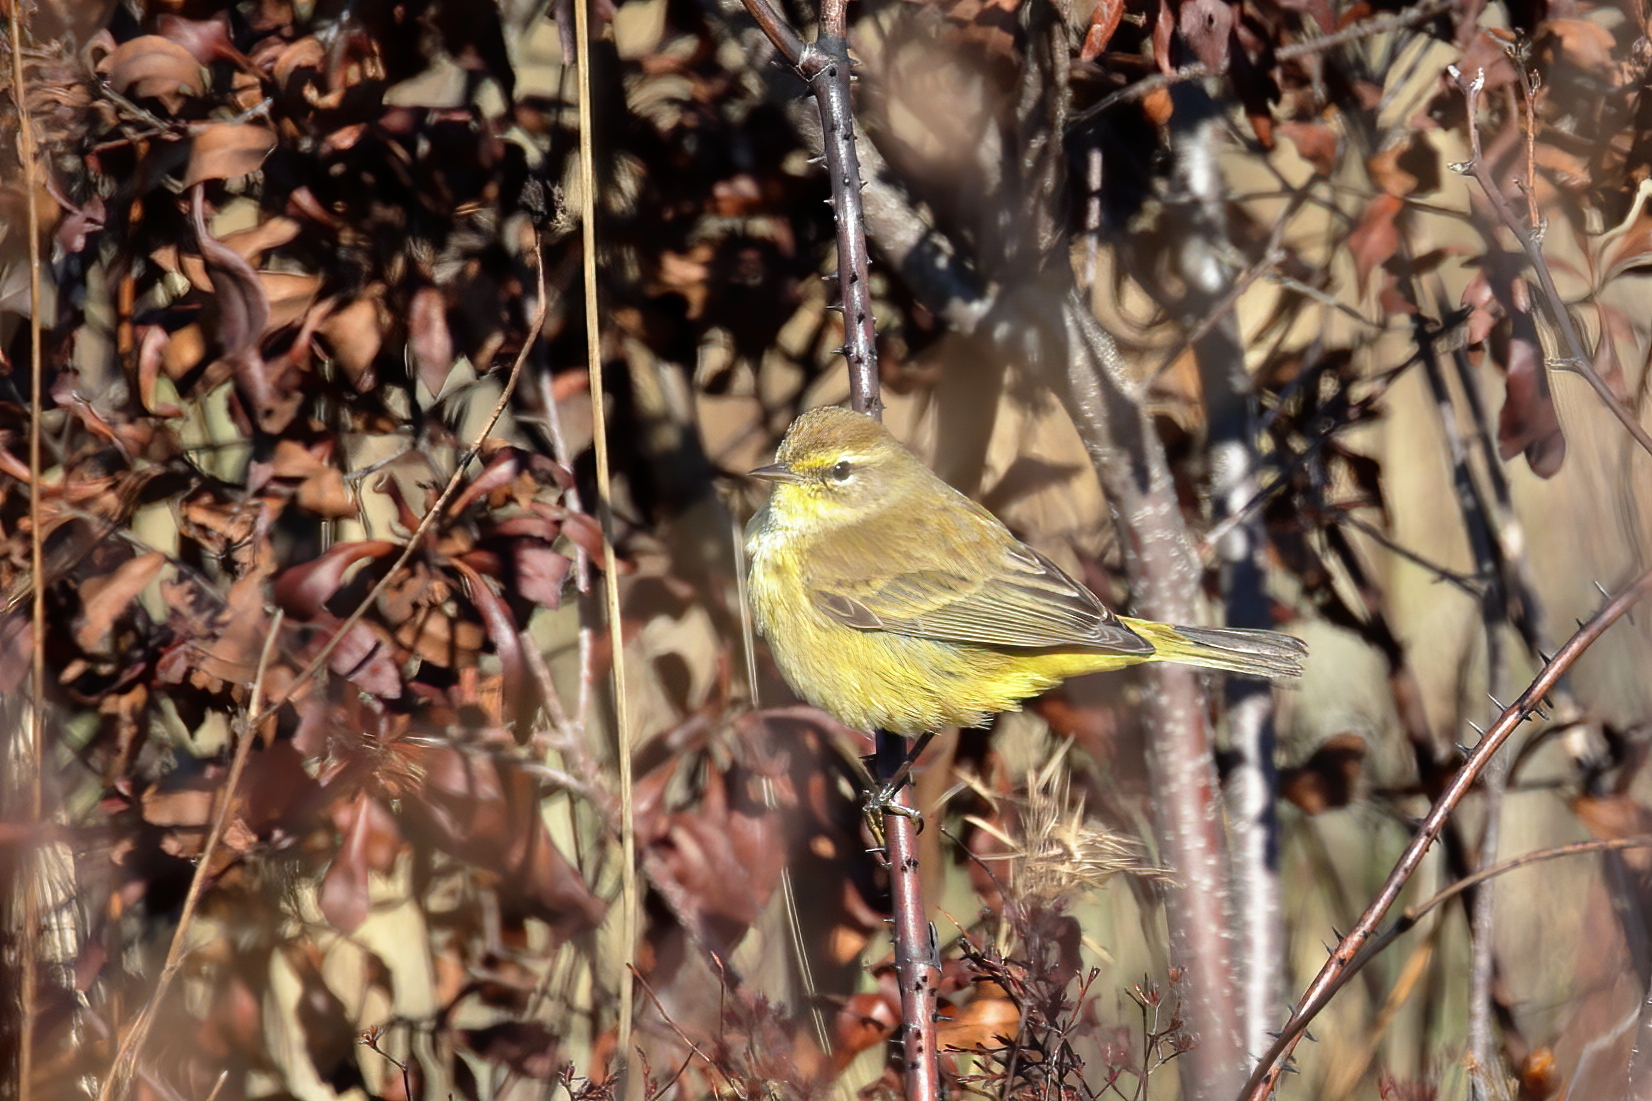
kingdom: Animalia
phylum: Chordata
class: Aves
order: Passeriformes
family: Parulidae
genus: Setophaga
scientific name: Setophaga palmarum
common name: Palm warbler
